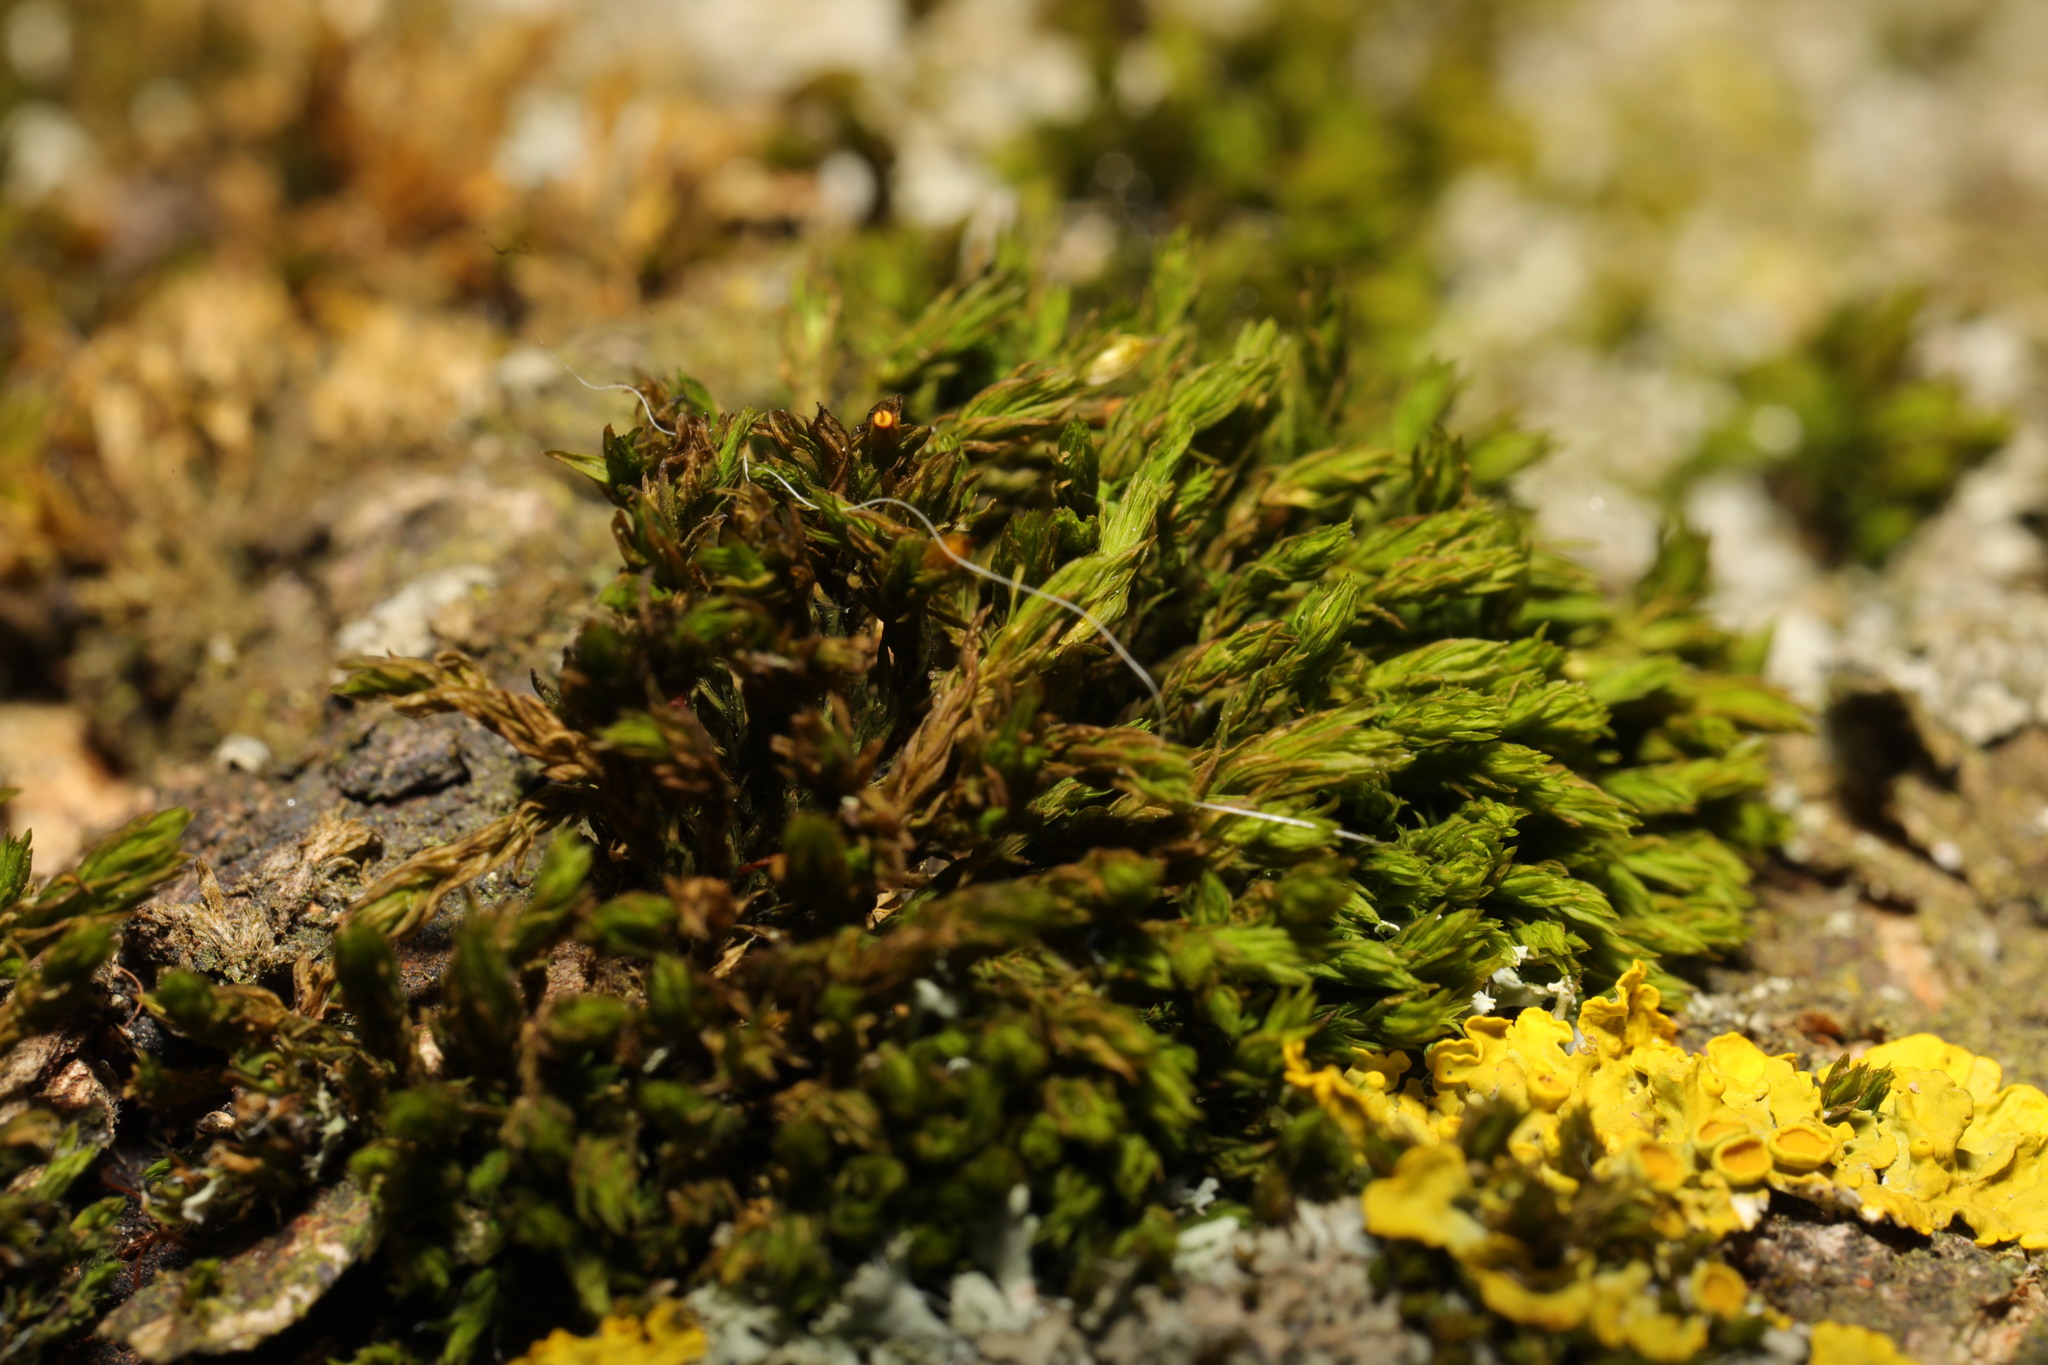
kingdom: Plantae
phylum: Bryophyta
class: Bryopsida
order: Orthotrichales
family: Orthotrichaceae
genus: Lewinskya
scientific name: Lewinskya affinis
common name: Wood bristle-moss
